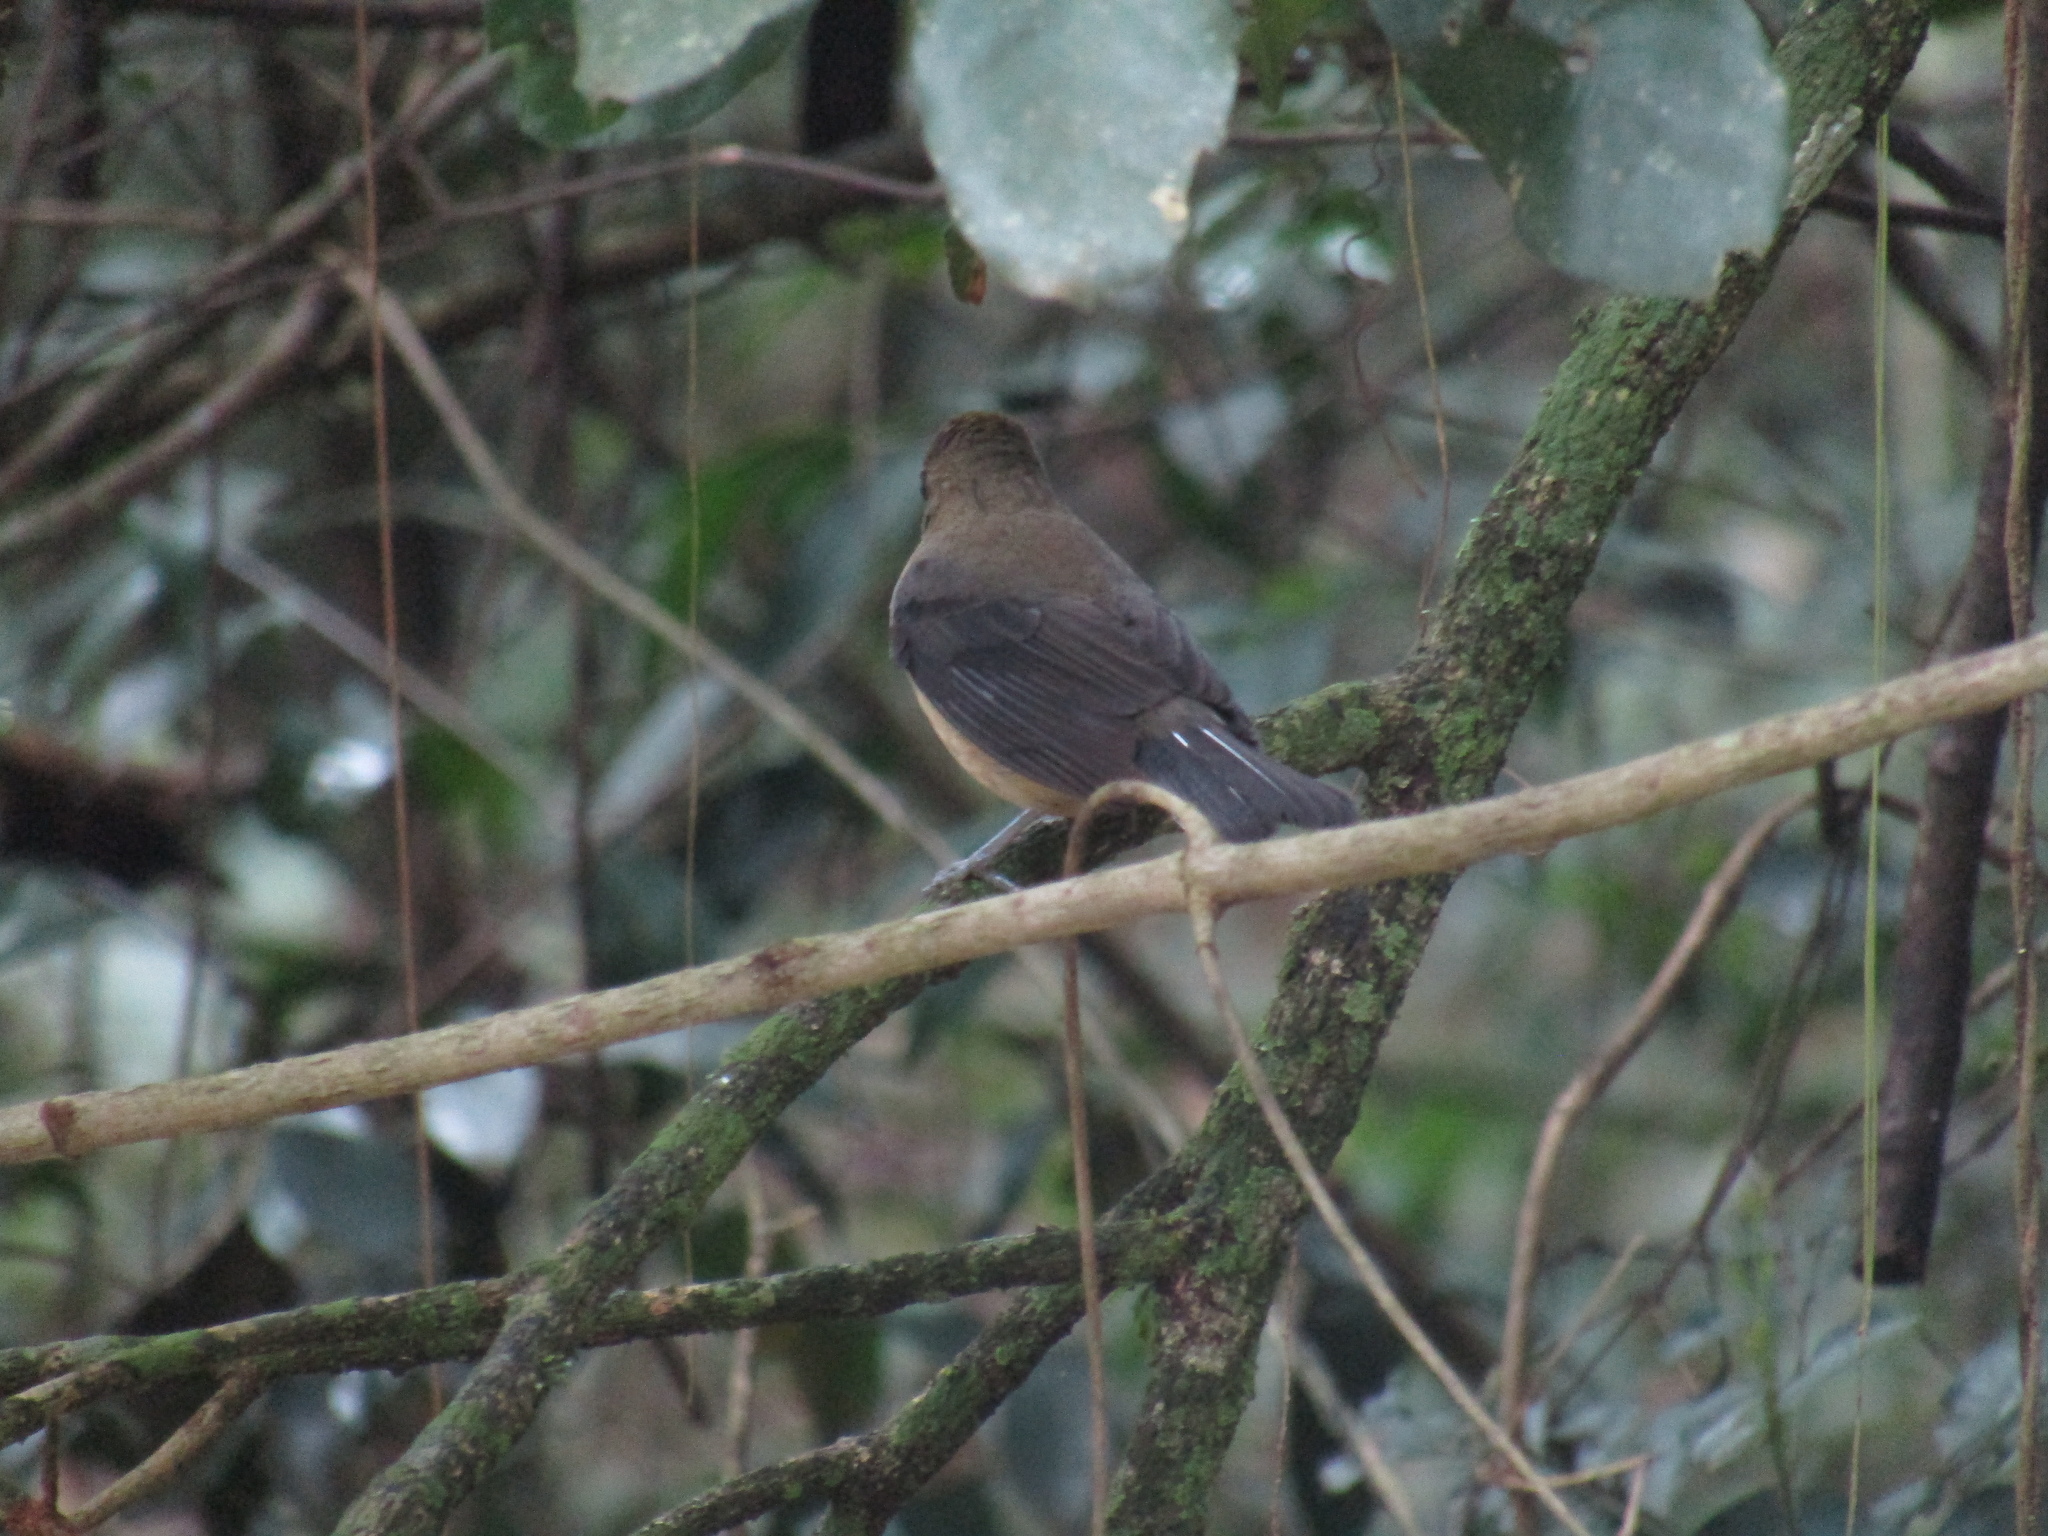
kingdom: Animalia
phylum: Chordata
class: Aves
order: Passeriformes
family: Thraupidae
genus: Trichothraupis
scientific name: Trichothraupis melanops
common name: Black-goggled tanager
